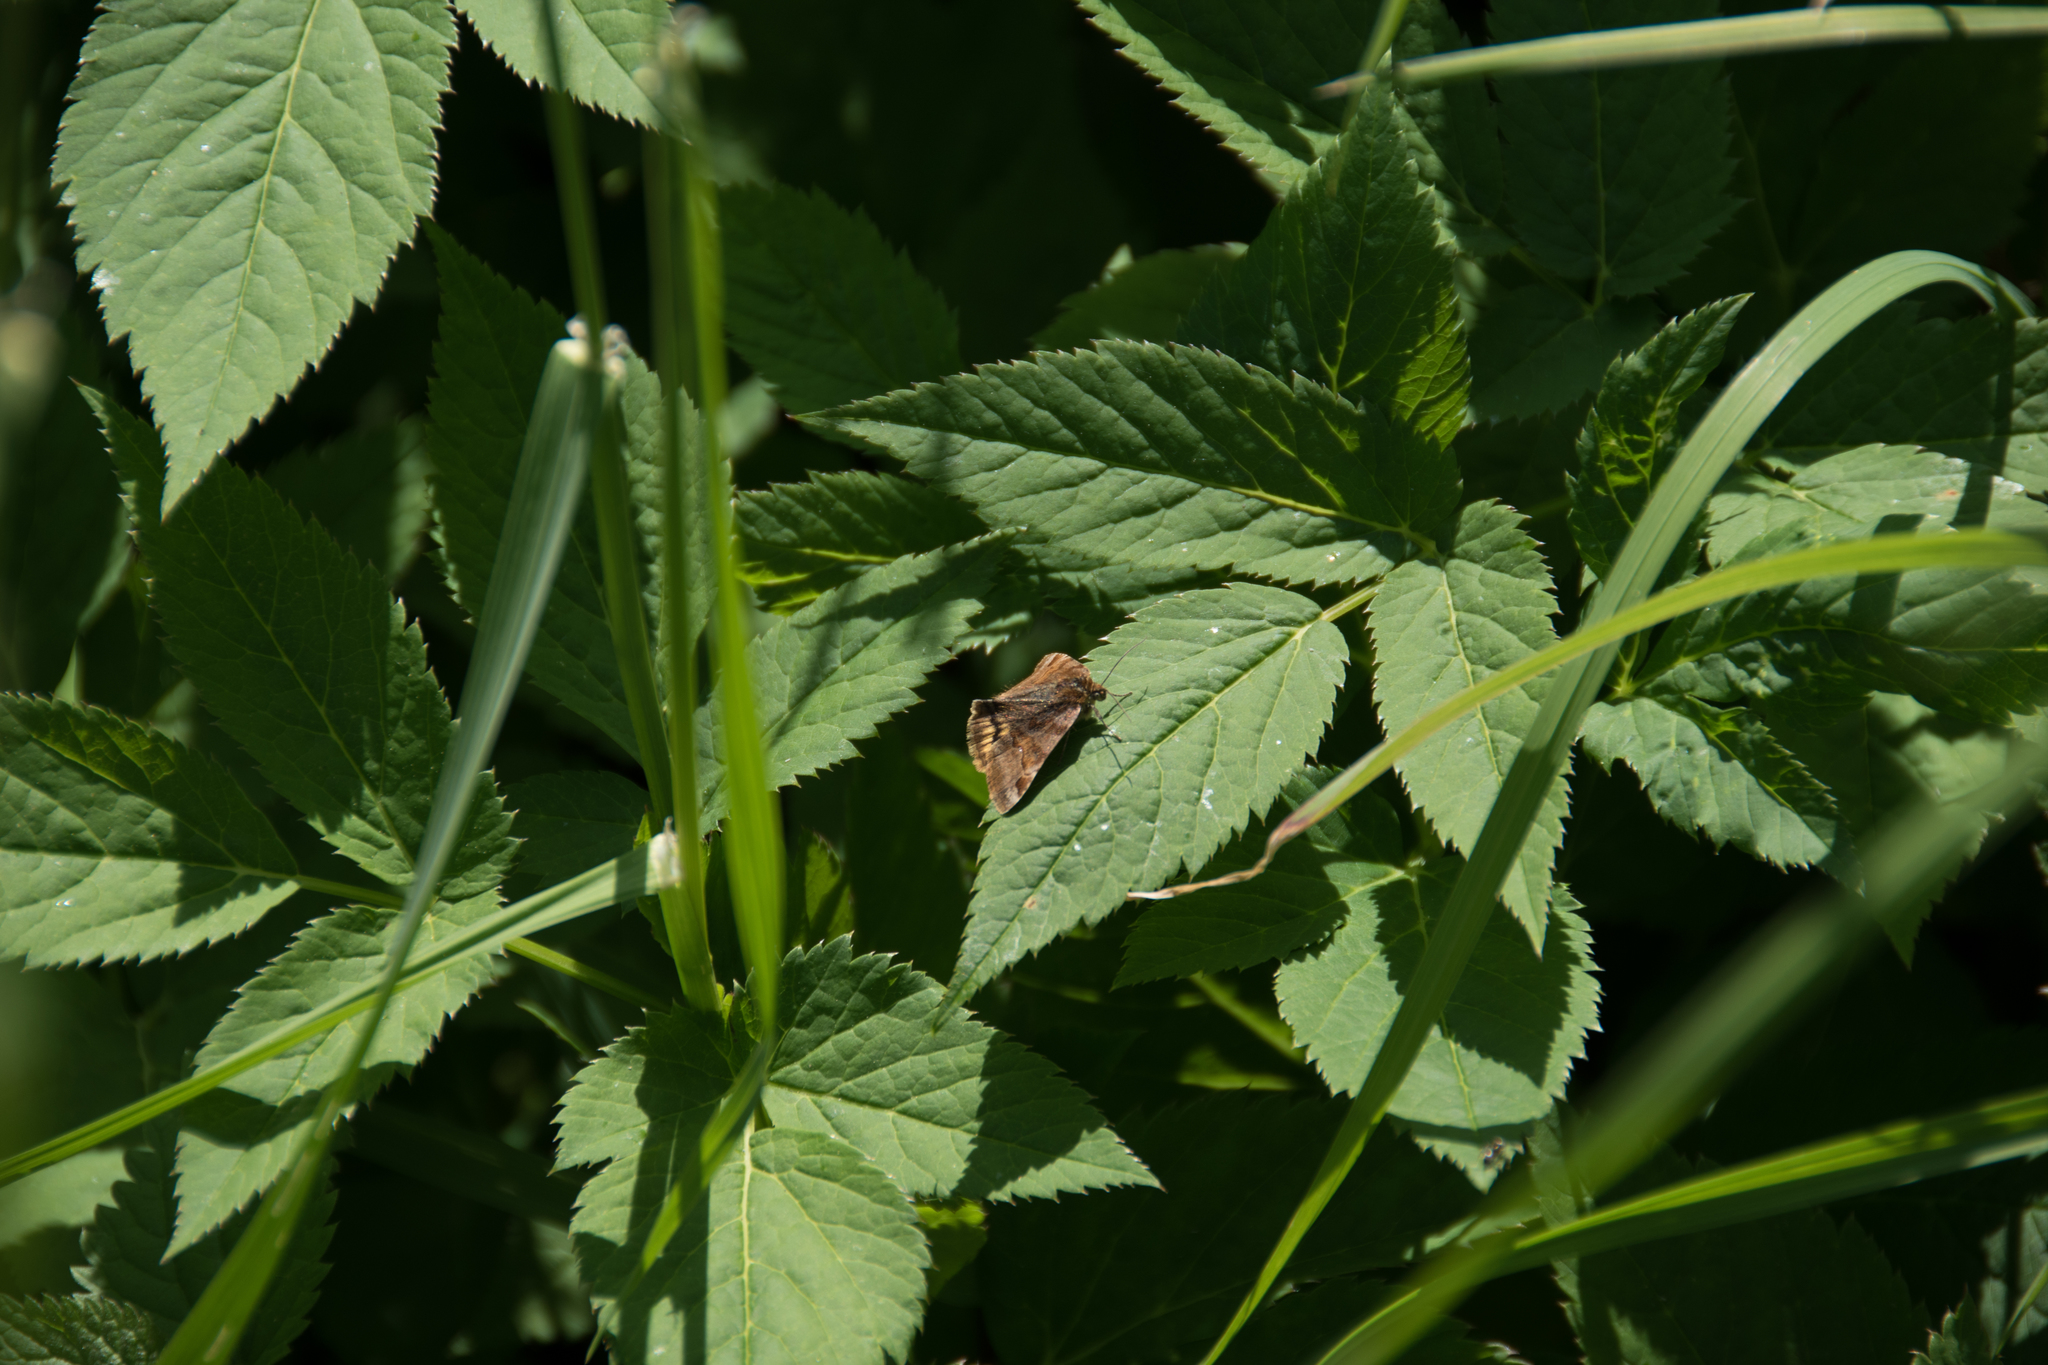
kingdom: Animalia
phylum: Arthropoda
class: Insecta
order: Lepidoptera
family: Erebidae
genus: Euclidia
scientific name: Euclidia glyphica
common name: Burnet companion
